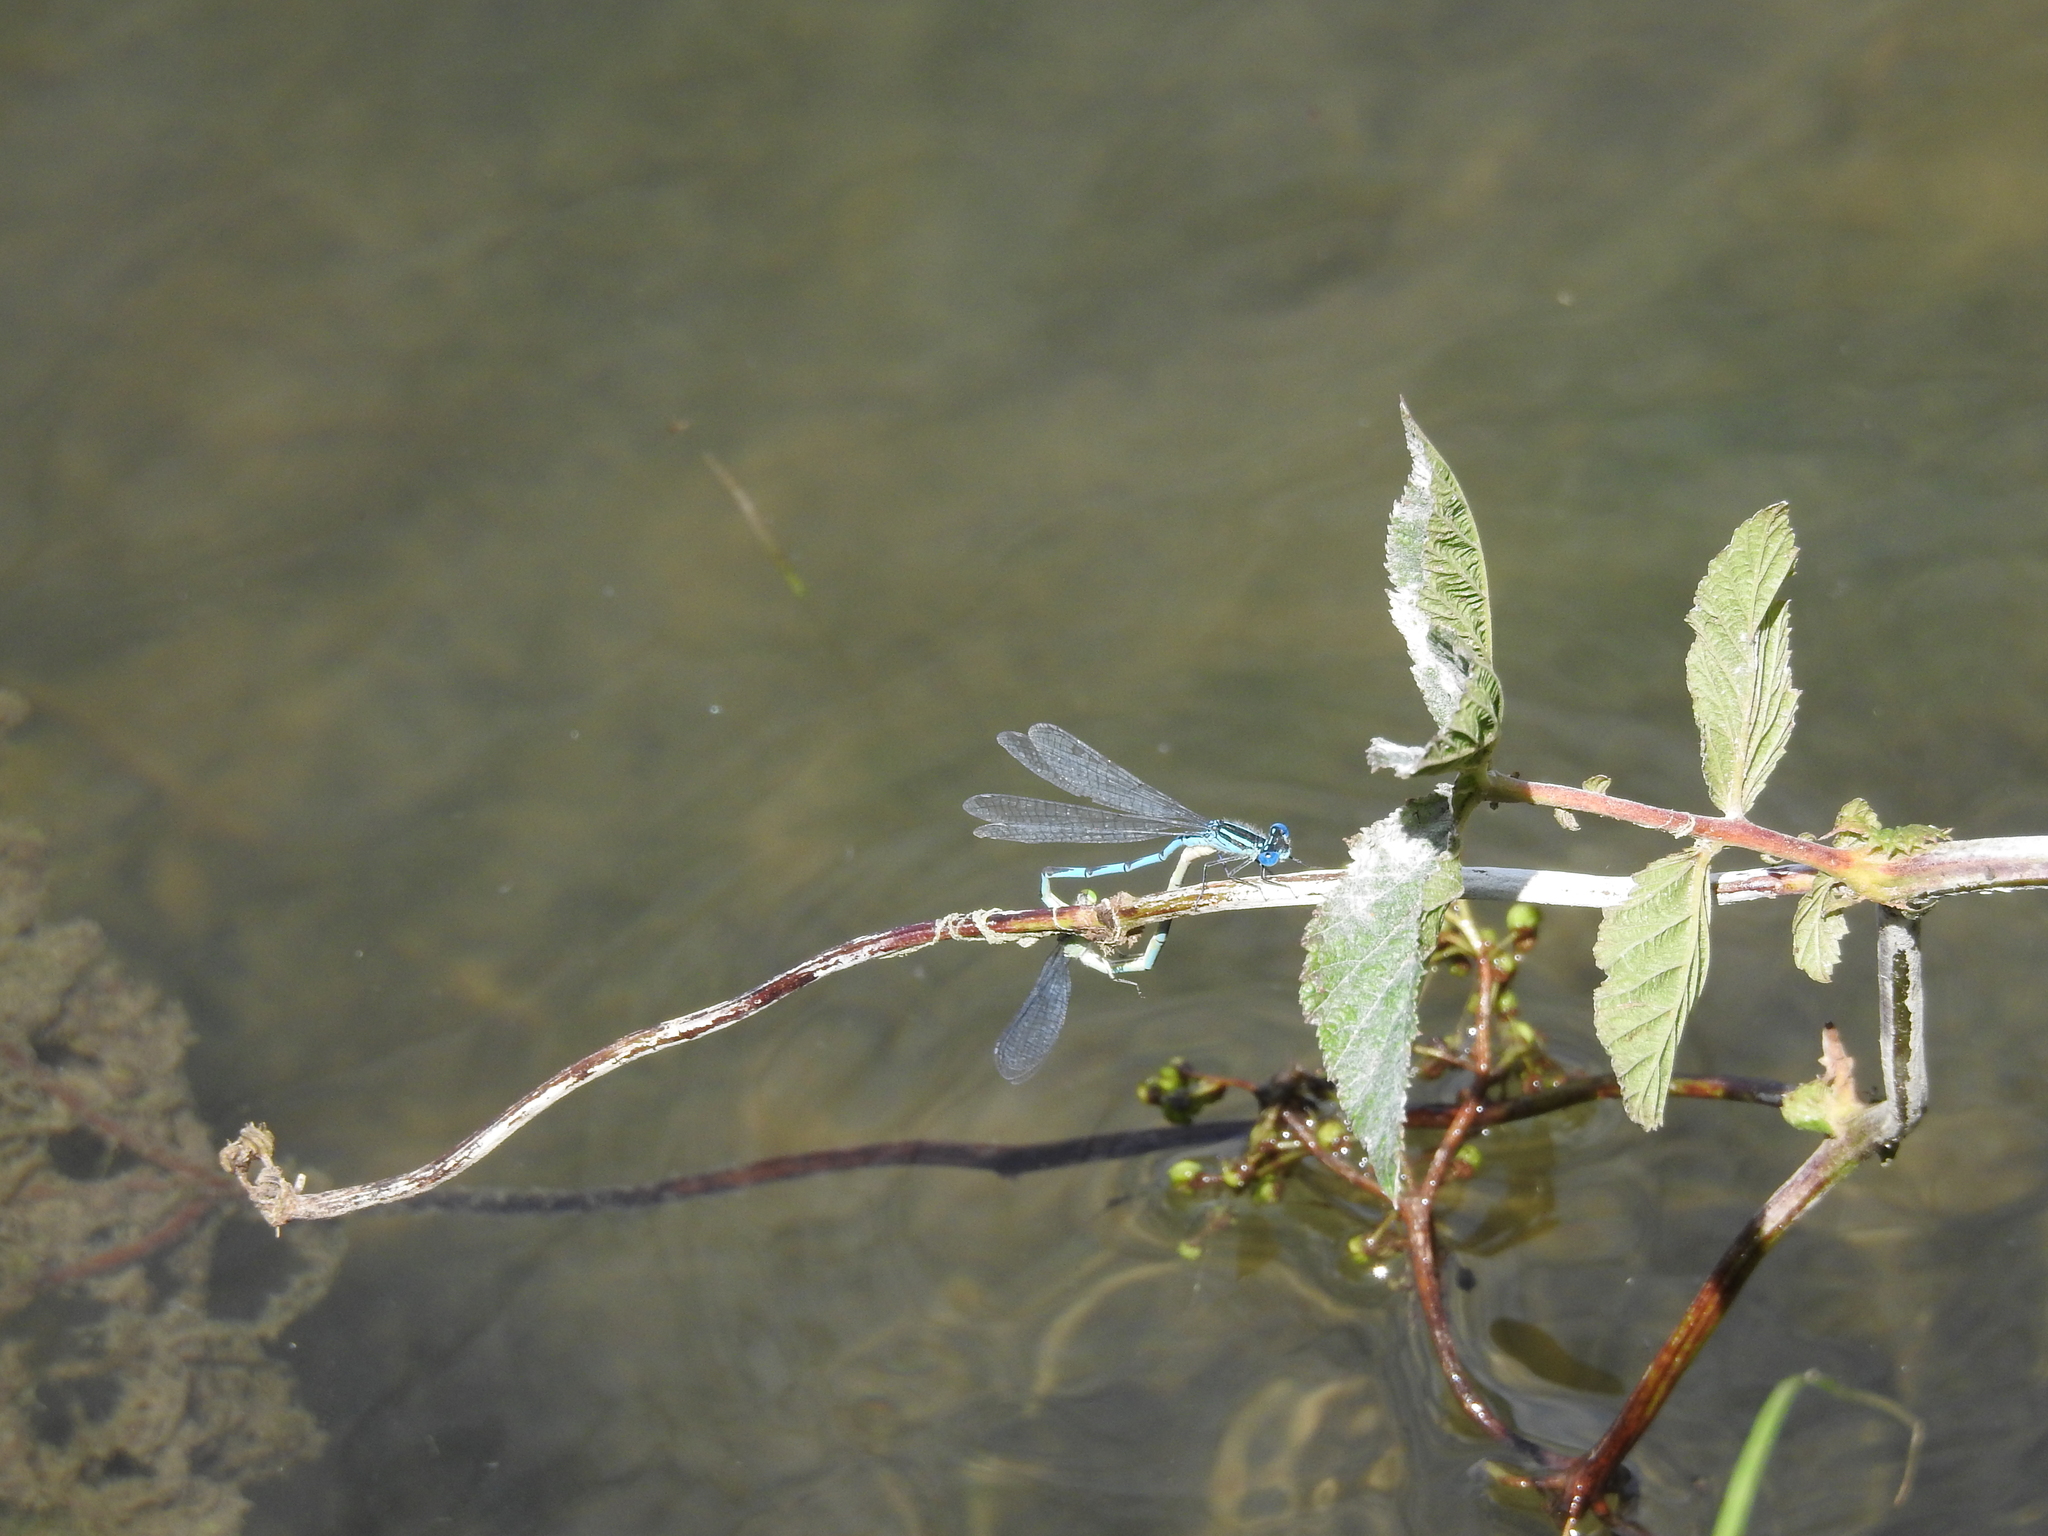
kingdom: Animalia
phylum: Arthropoda
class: Insecta
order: Odonata
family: Coenagrionidae
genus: Erythromma
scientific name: Erythromma lindenii
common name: Blue-eye
